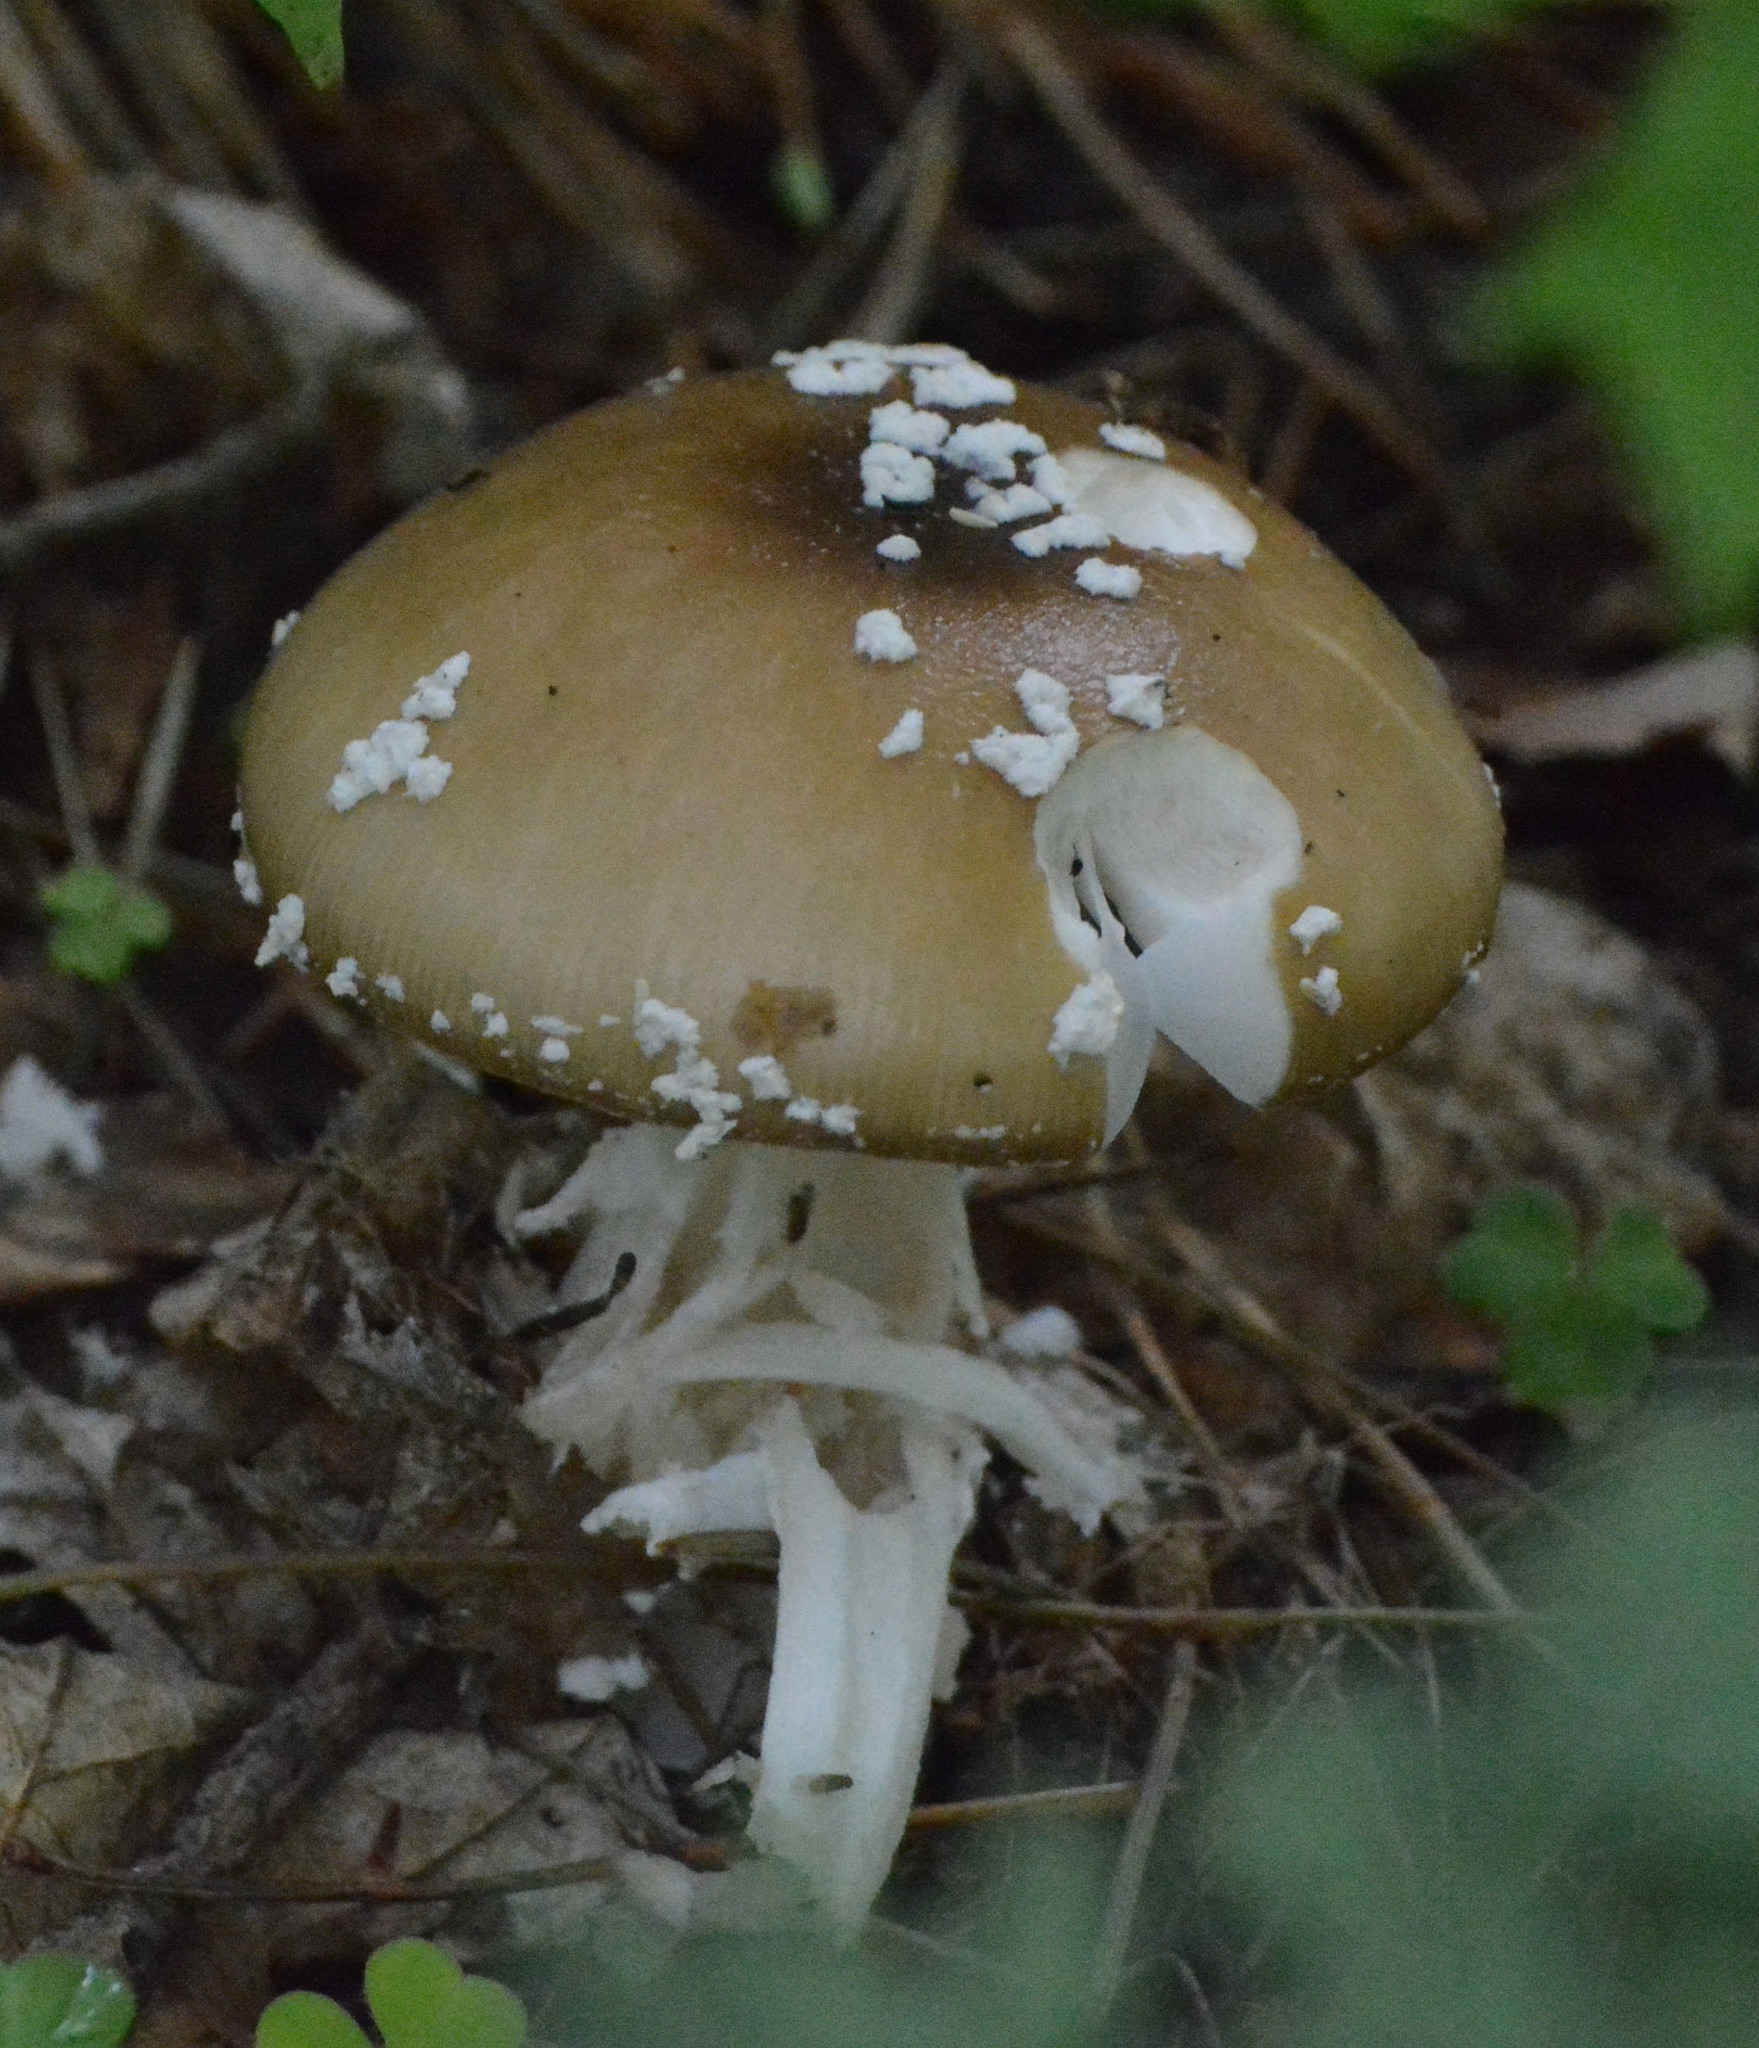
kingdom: Fungi
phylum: Basidiomycota
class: Agaricomycetes
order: Agaricales
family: Amanitaceae
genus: Amanita
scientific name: Amanita pantherina
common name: Panthercap
